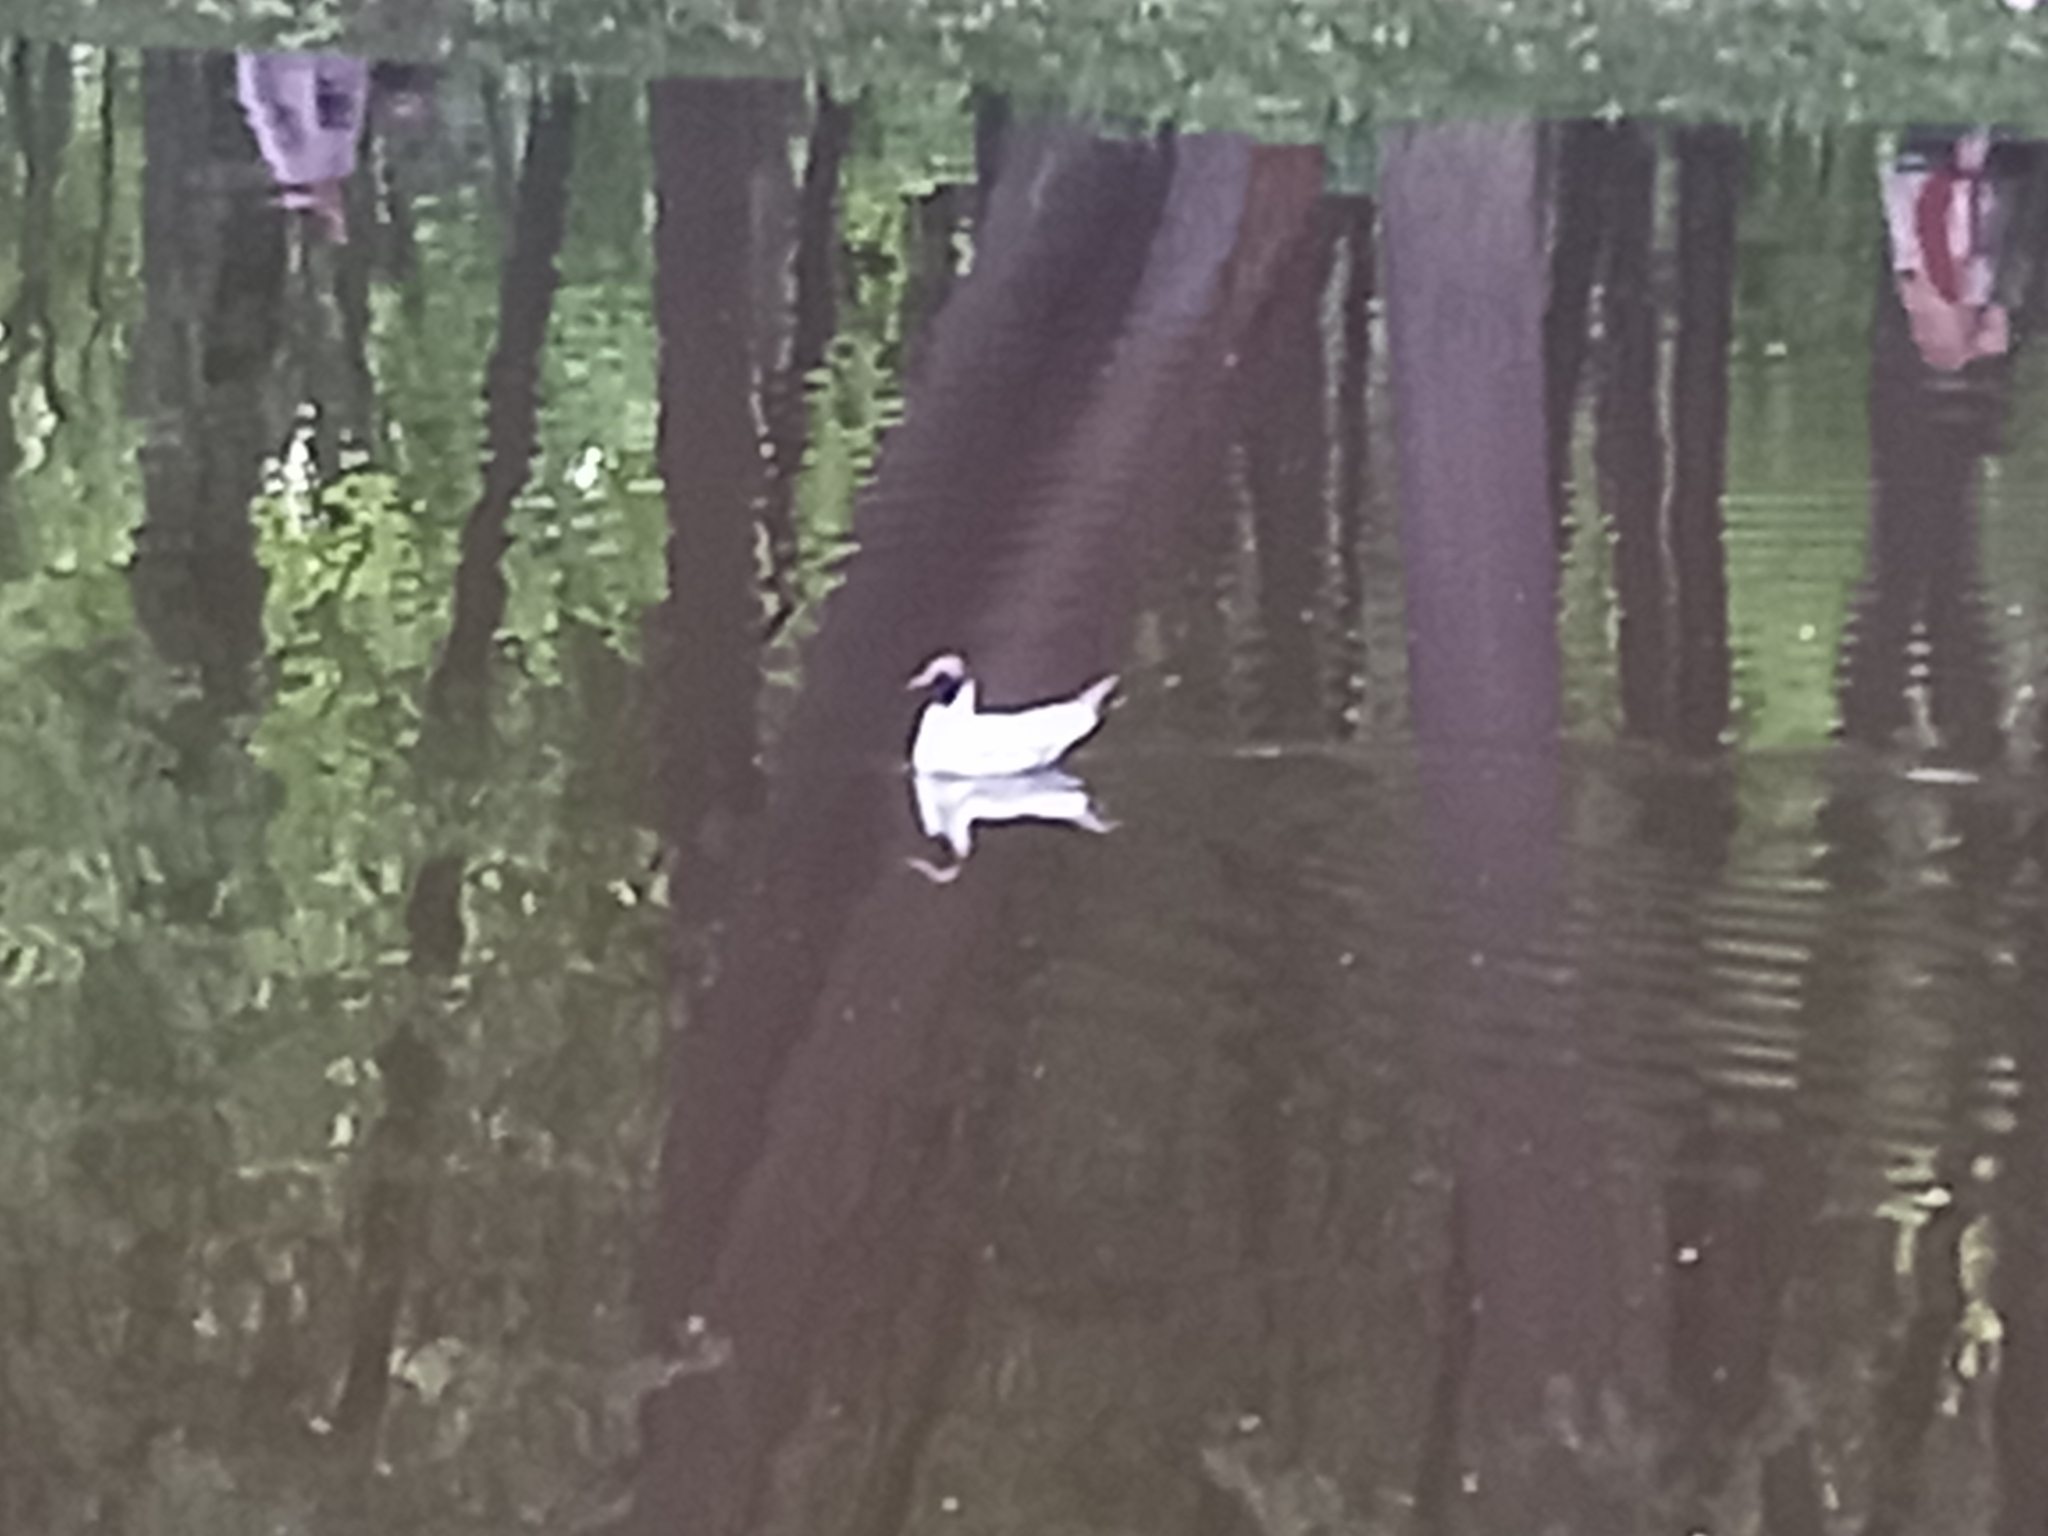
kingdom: Animalia
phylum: Chordata
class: Aves
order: Charadriiformes
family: Laridae
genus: Chroicocephalus
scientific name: Chroicocephalus ridibundus
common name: Black-headed gull
